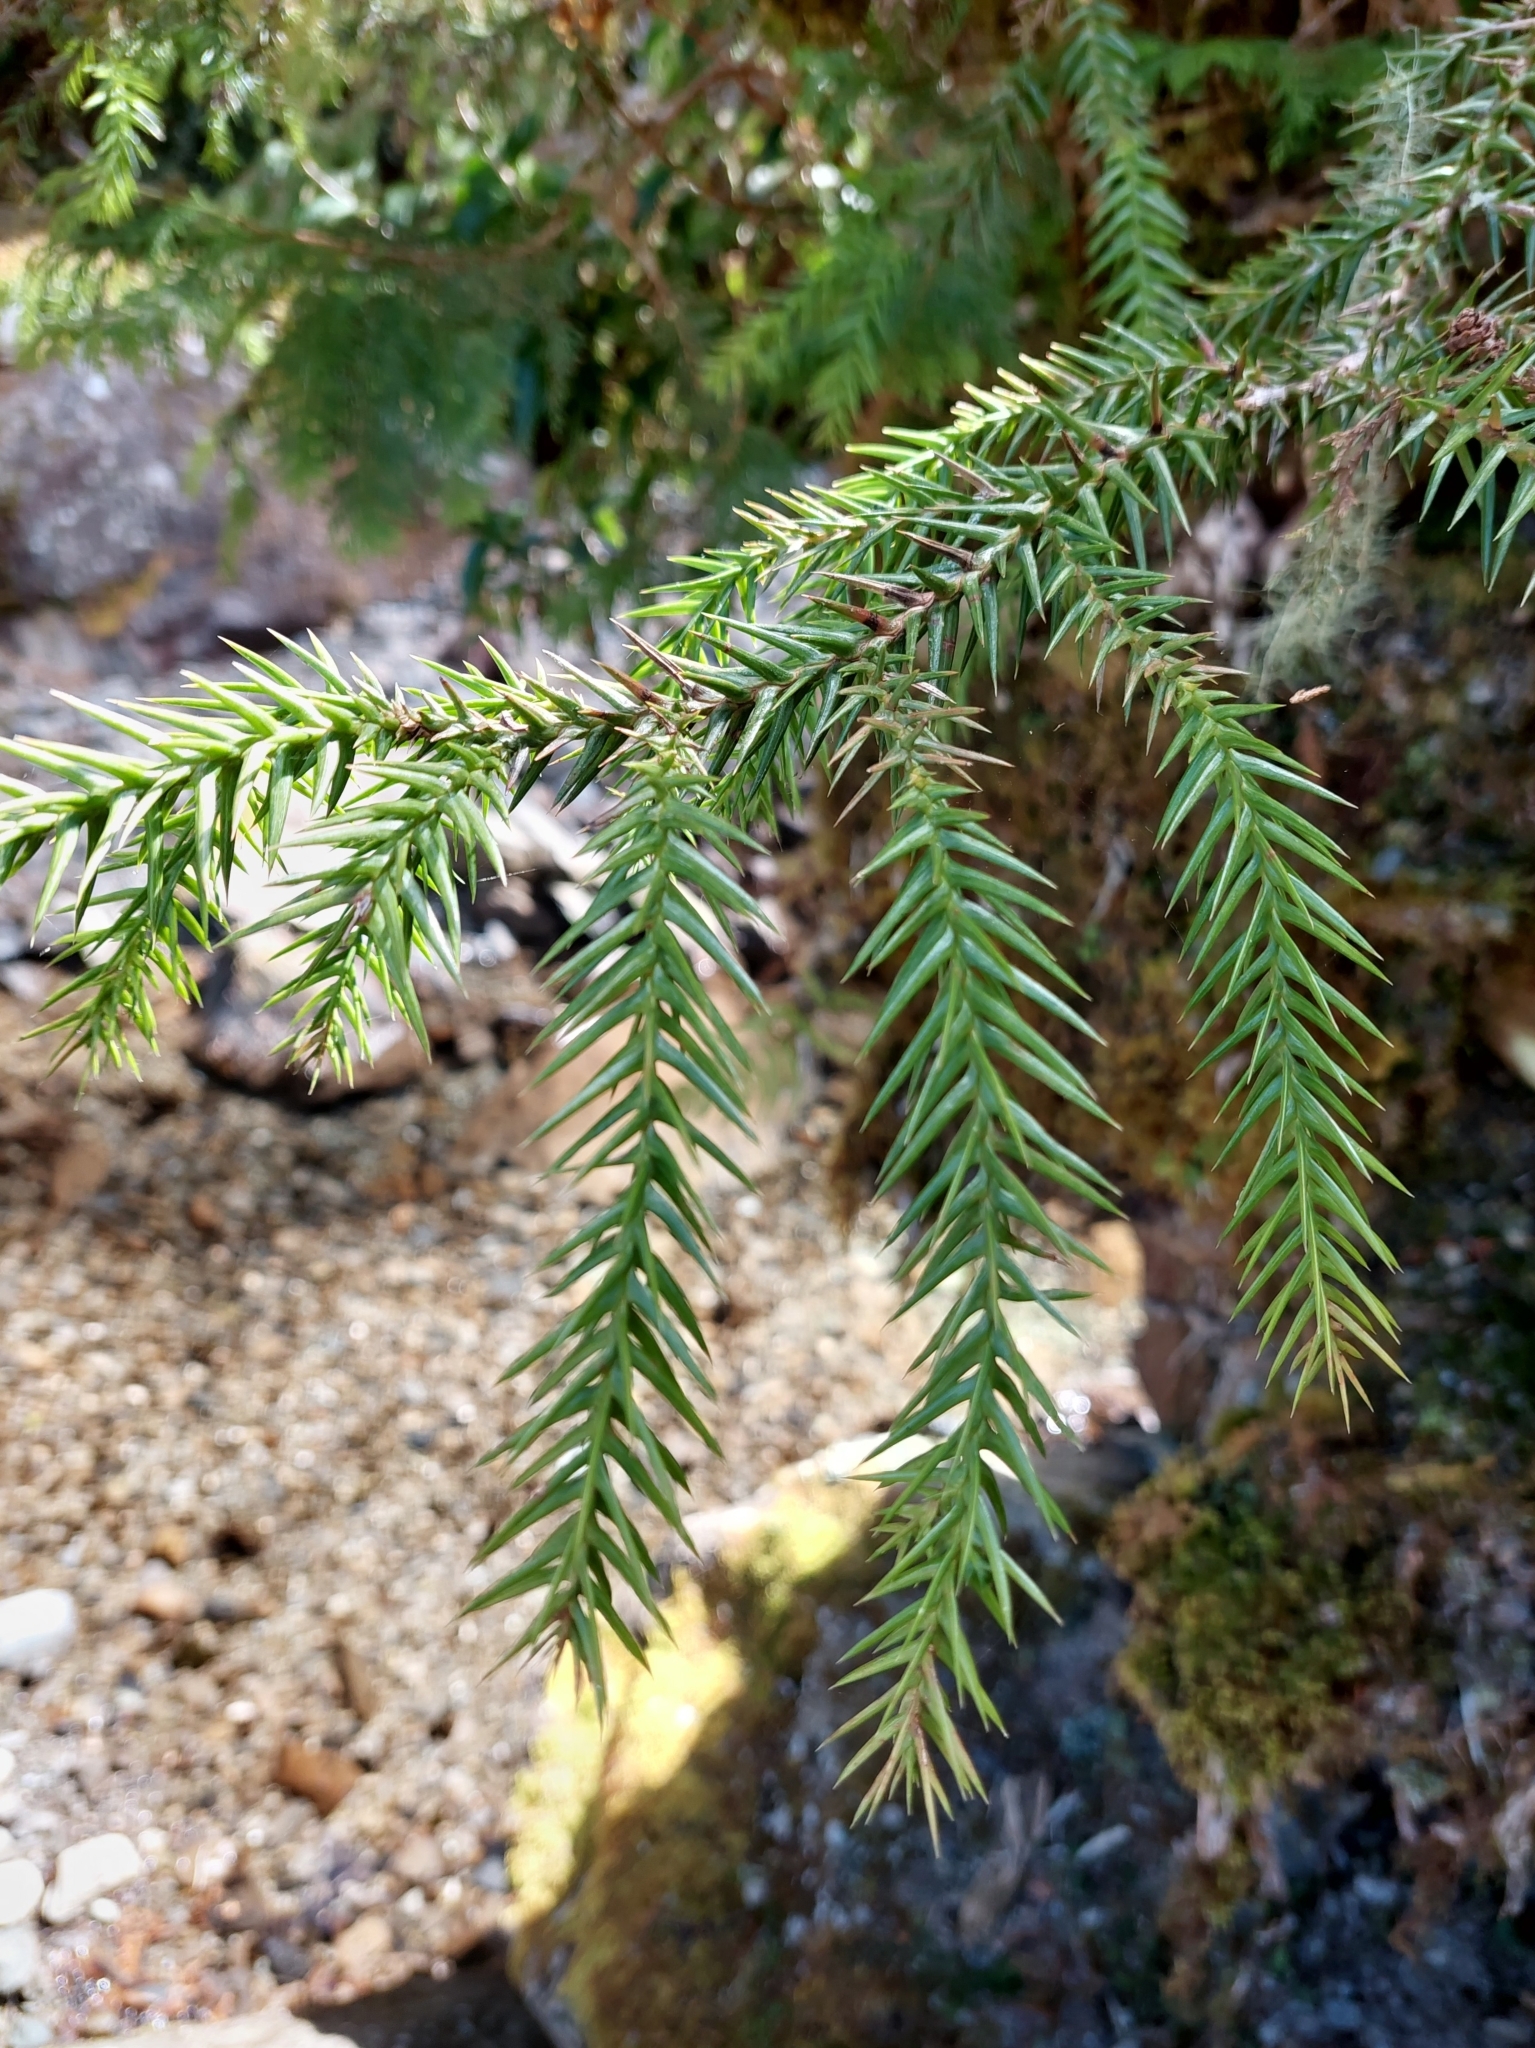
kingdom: Plantae
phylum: Tracheophyta
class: Pinopsida
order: Pinales
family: Cupressaceae
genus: Taiwania
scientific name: Taiwania cryptomerioides
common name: Coffin tree
